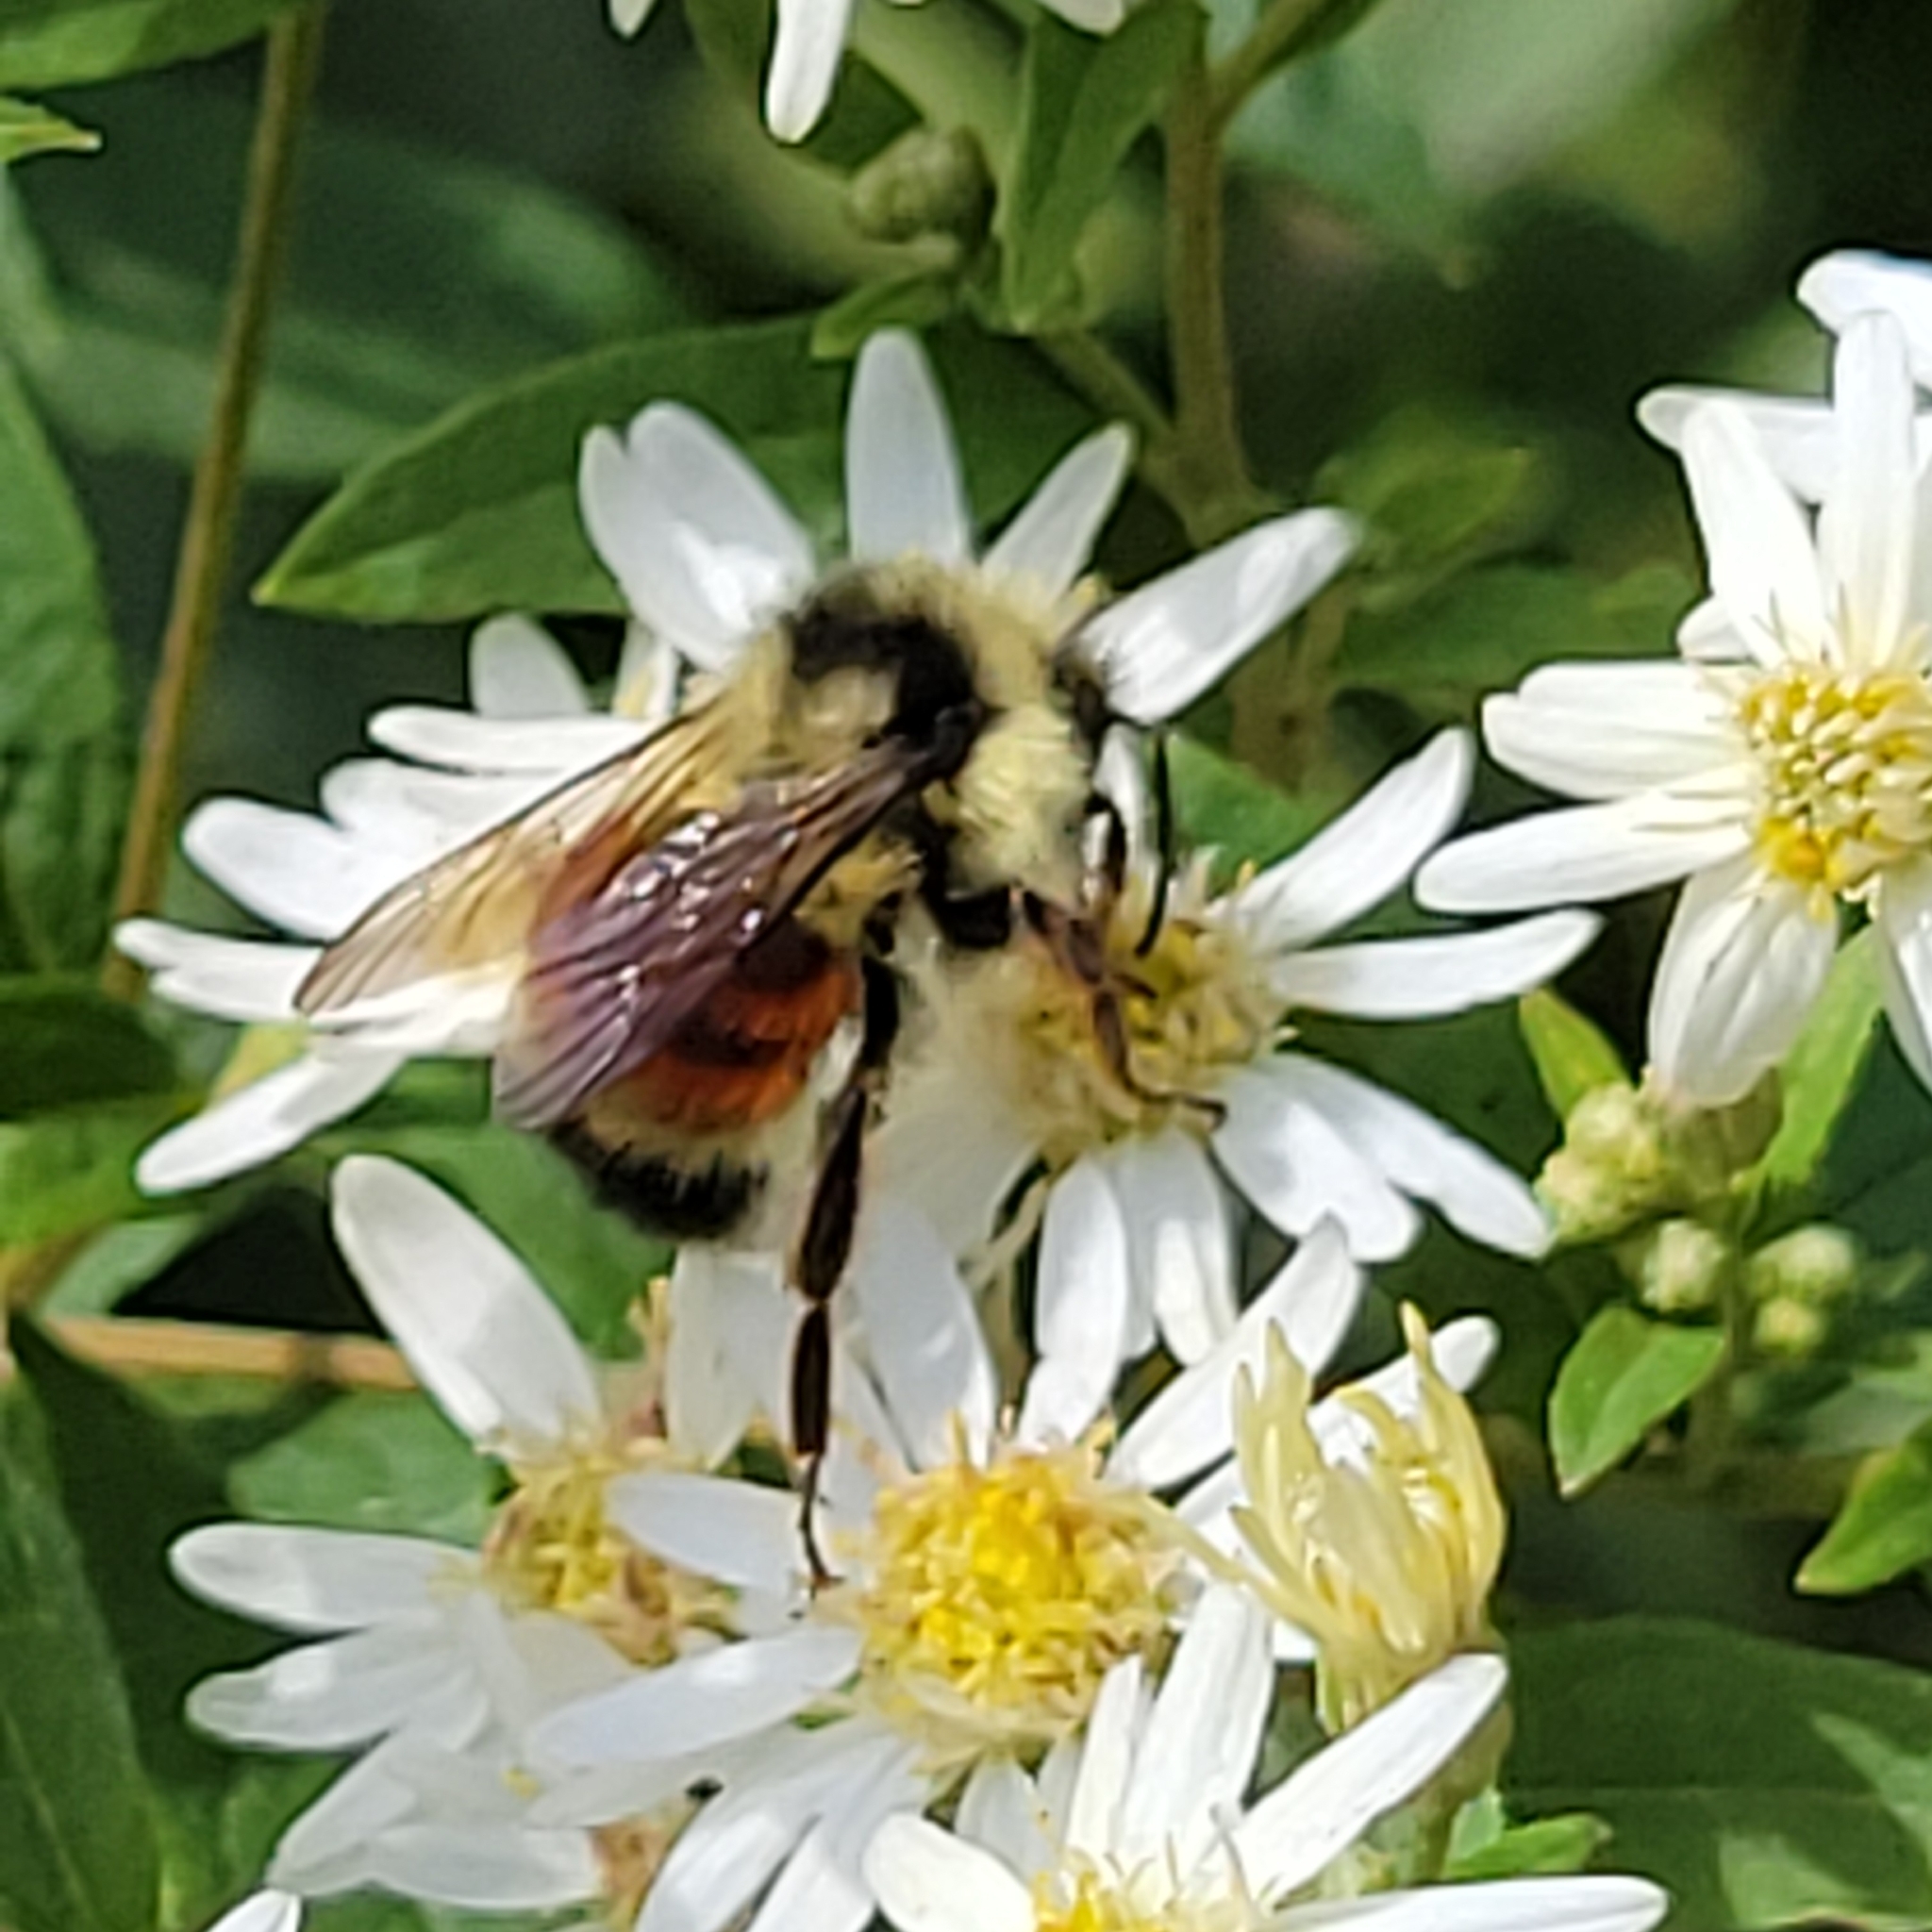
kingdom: Animalia
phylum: Arthropoda
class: Insecta
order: Hymenoptera
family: Apidae
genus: Bombus
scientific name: Bombus ternarius
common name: Tri-colored bumble bee
